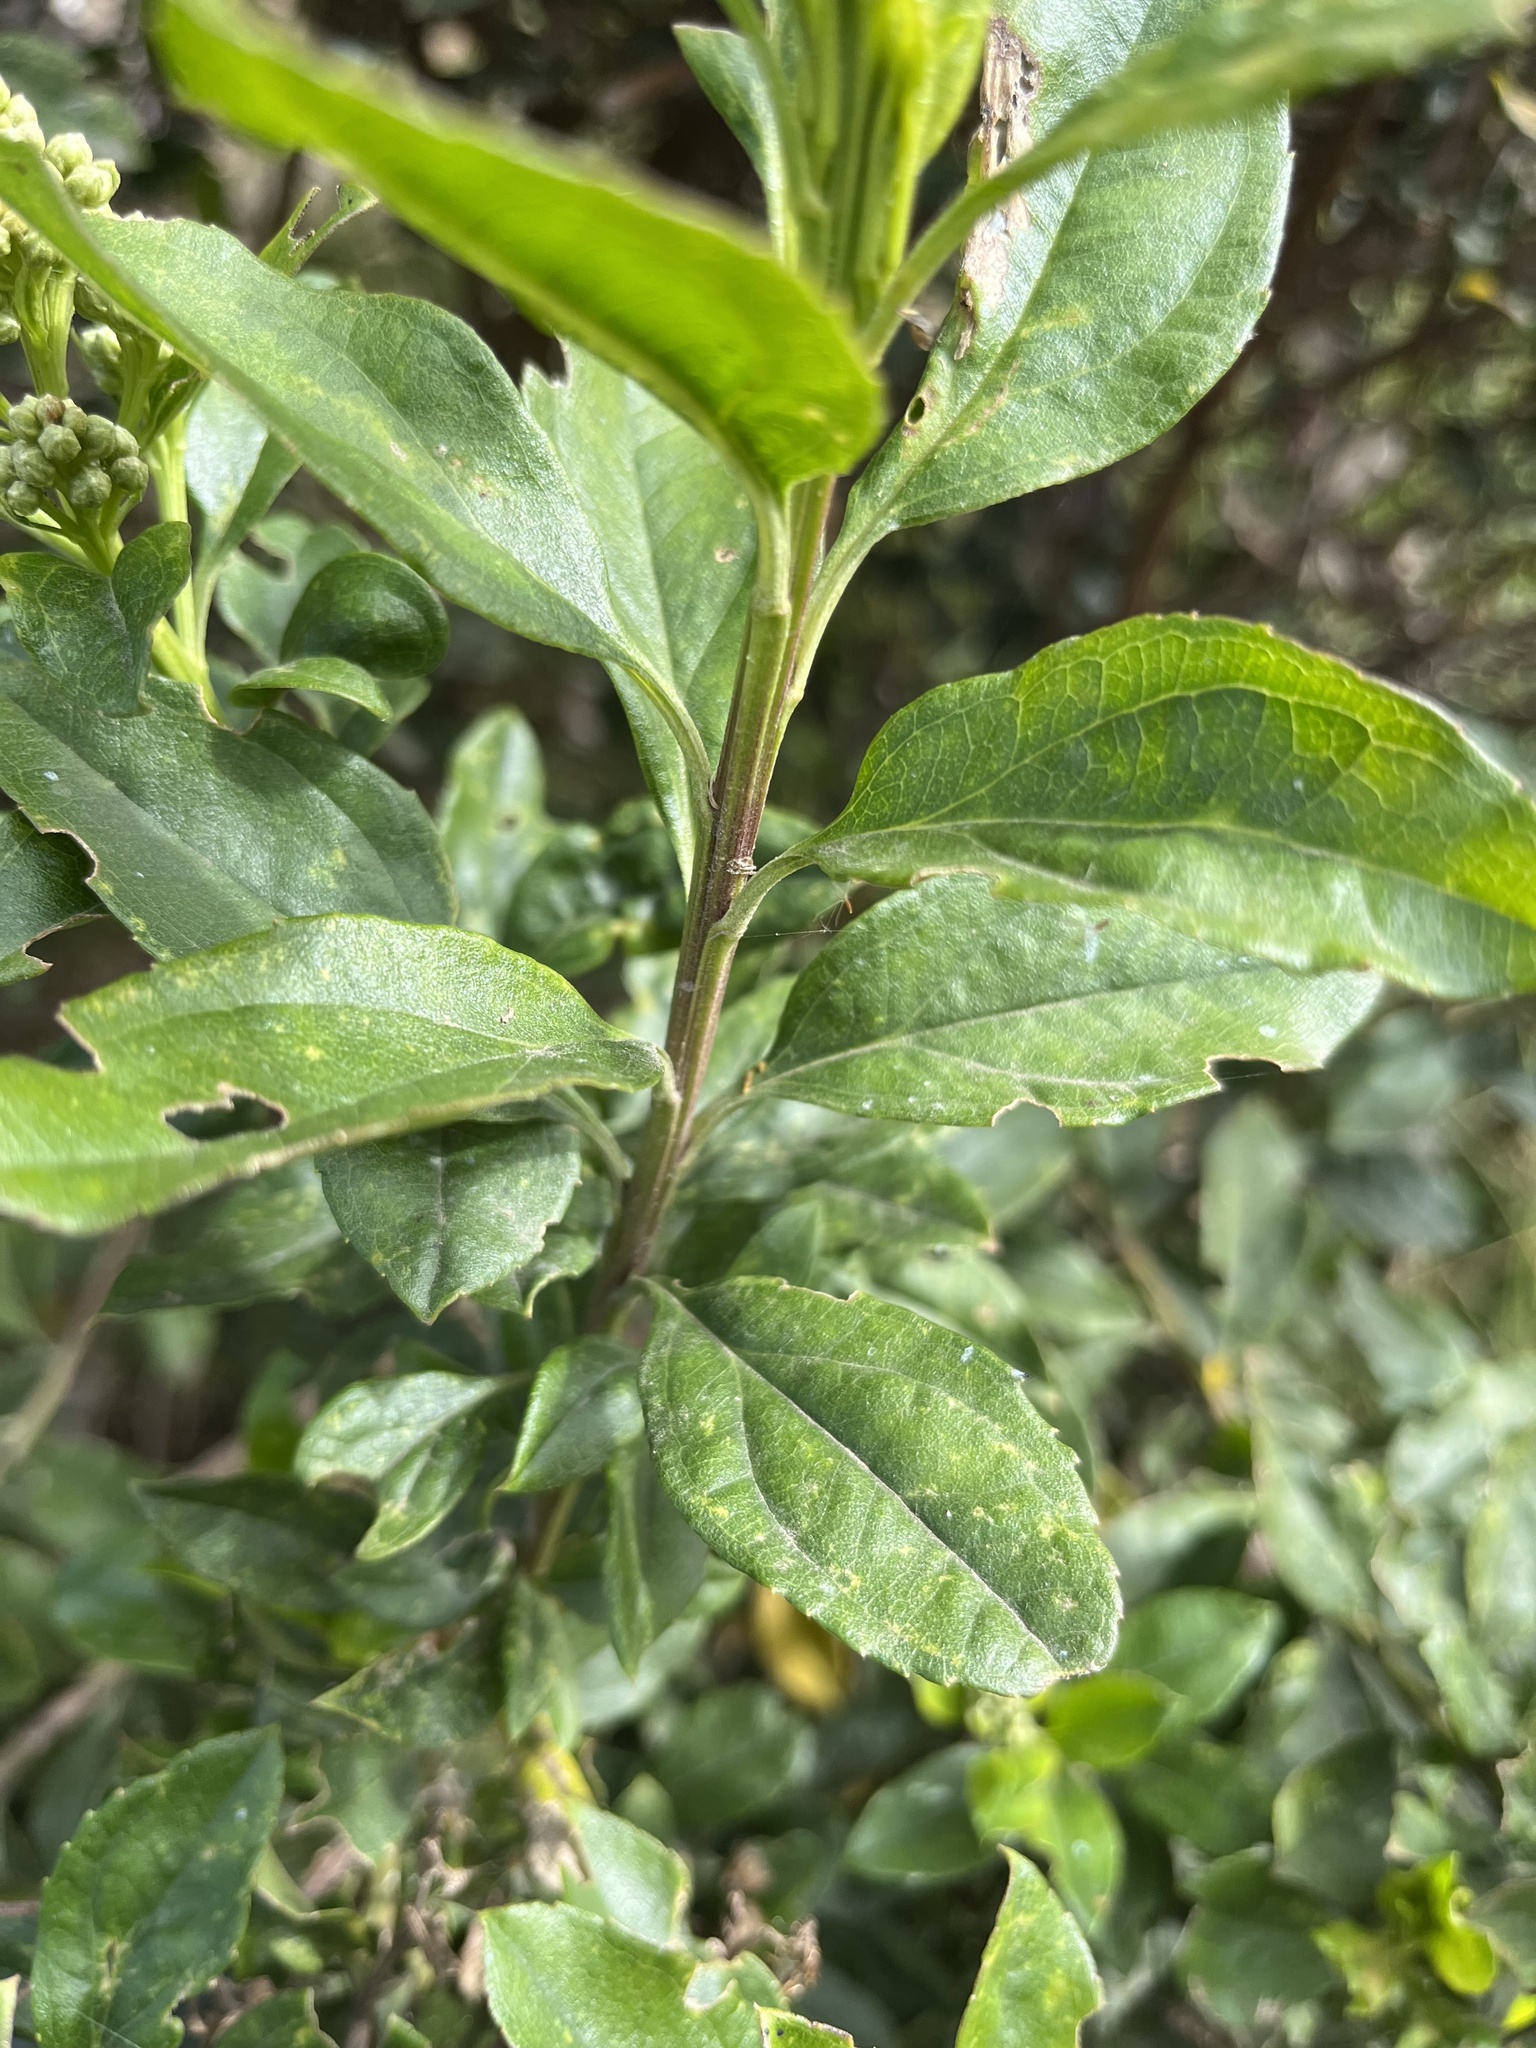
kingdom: Plantae
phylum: Tracheophyta
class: Magnoliopsida
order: Asterales
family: Asteraceae
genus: Baccharis
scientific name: Baccharis prunifolia
